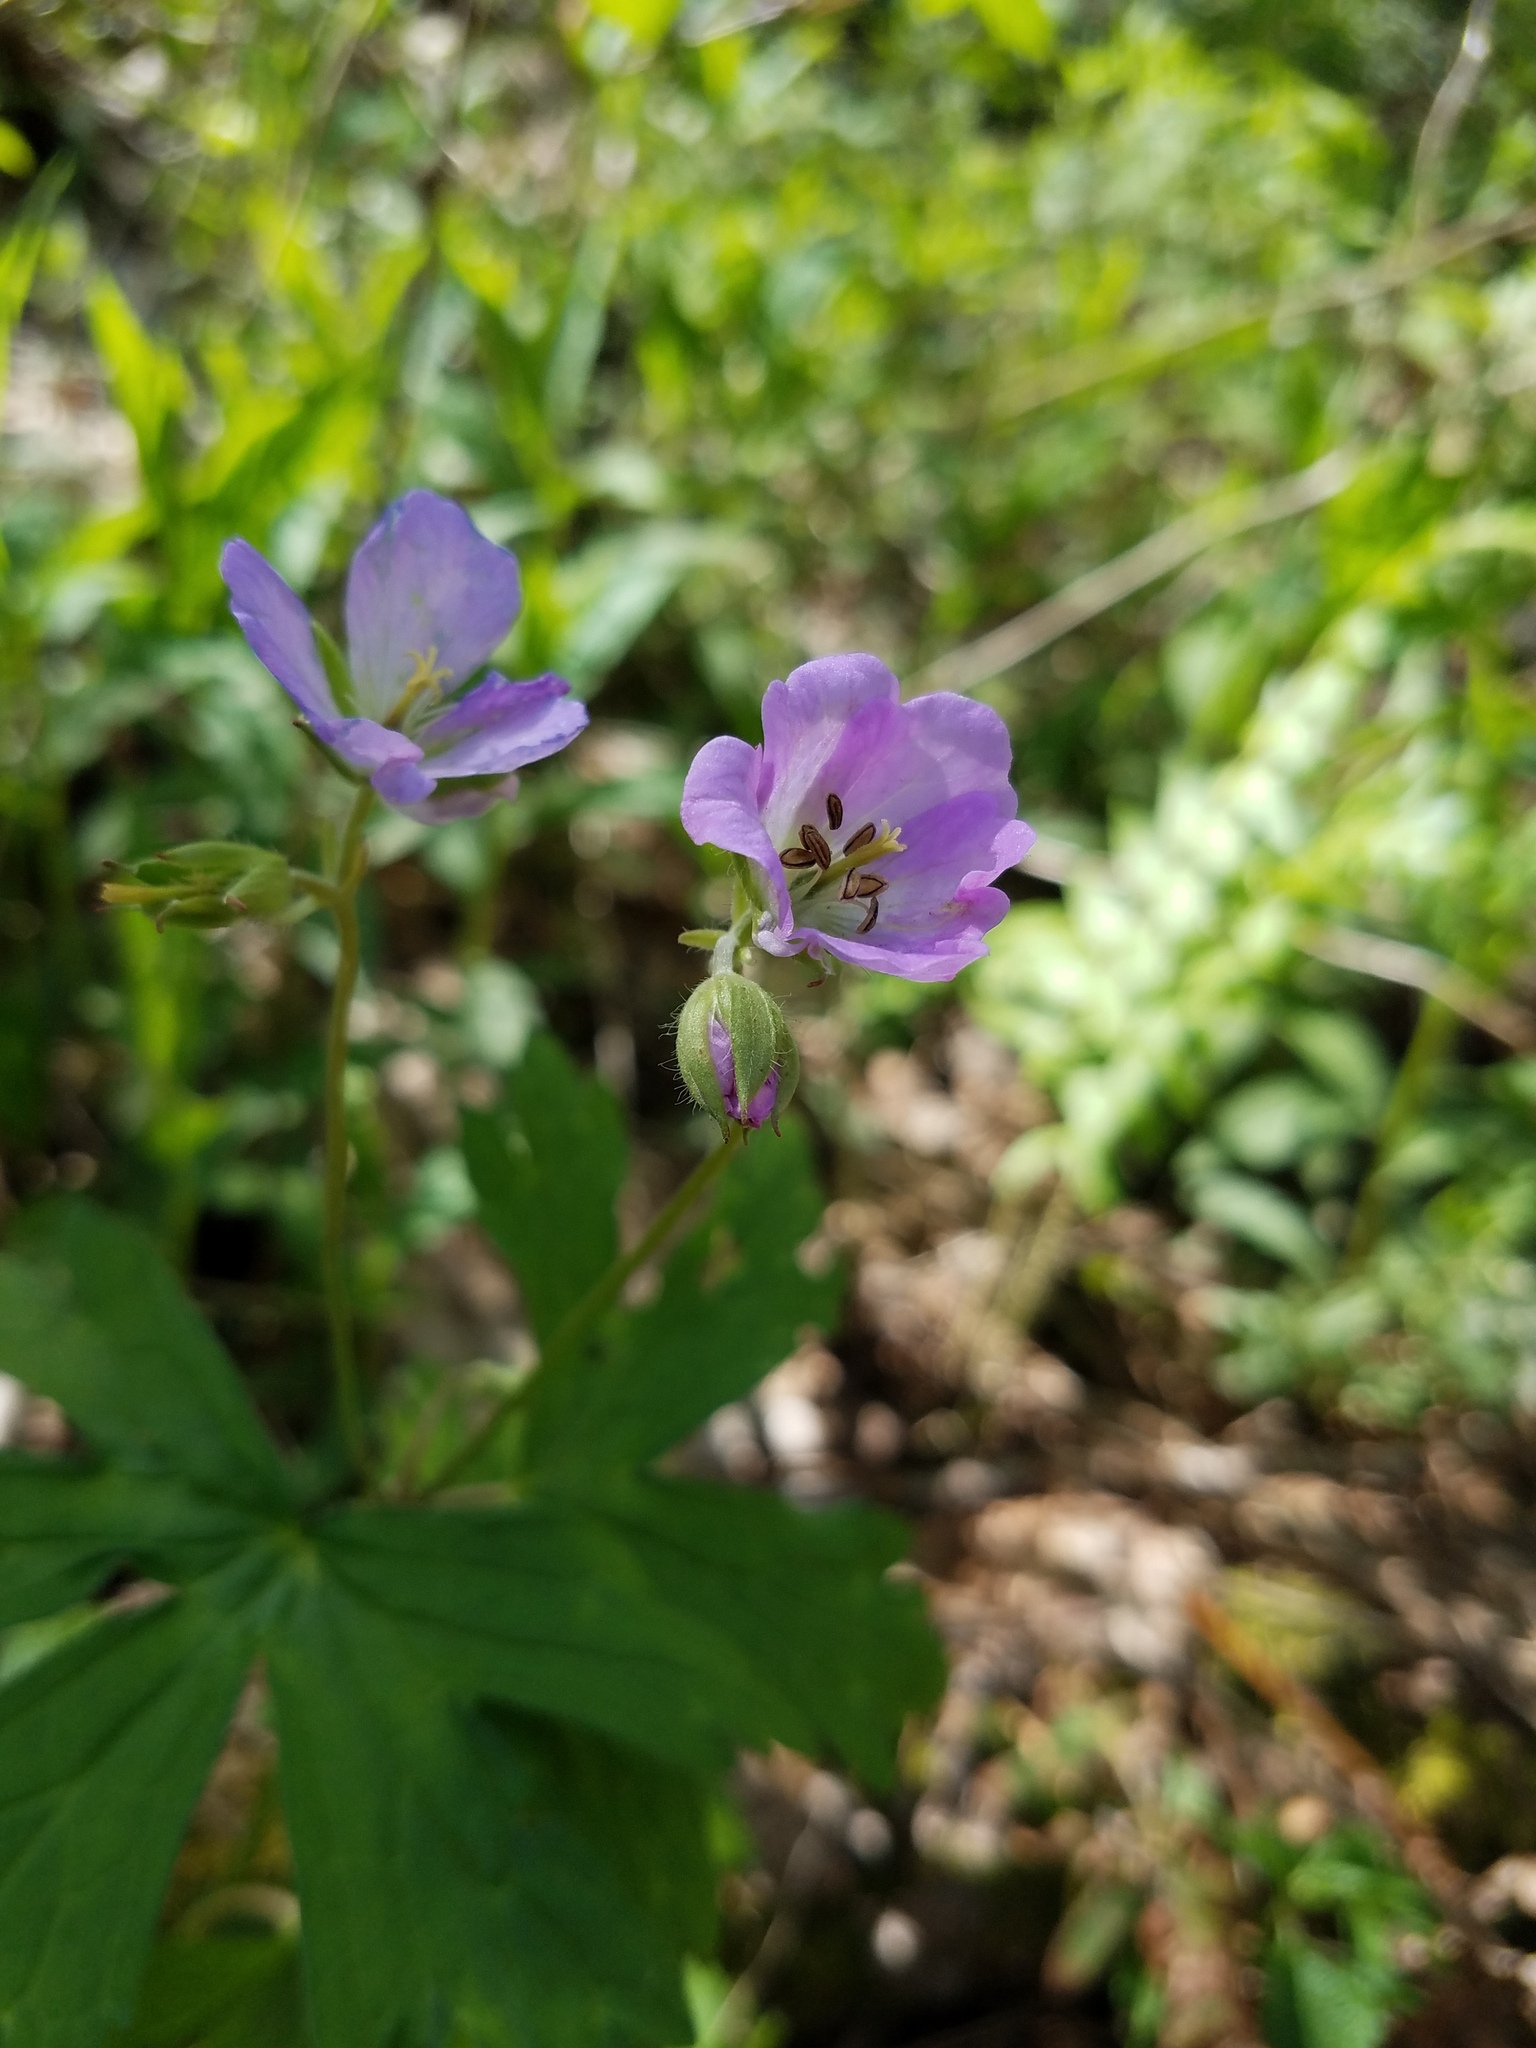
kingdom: Plantae
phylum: Tracheophyta
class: Magnoliopsida
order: Geraniales
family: Geraniaceae
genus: Geranium
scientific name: Geranium maculatum
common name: Spotted geranium
